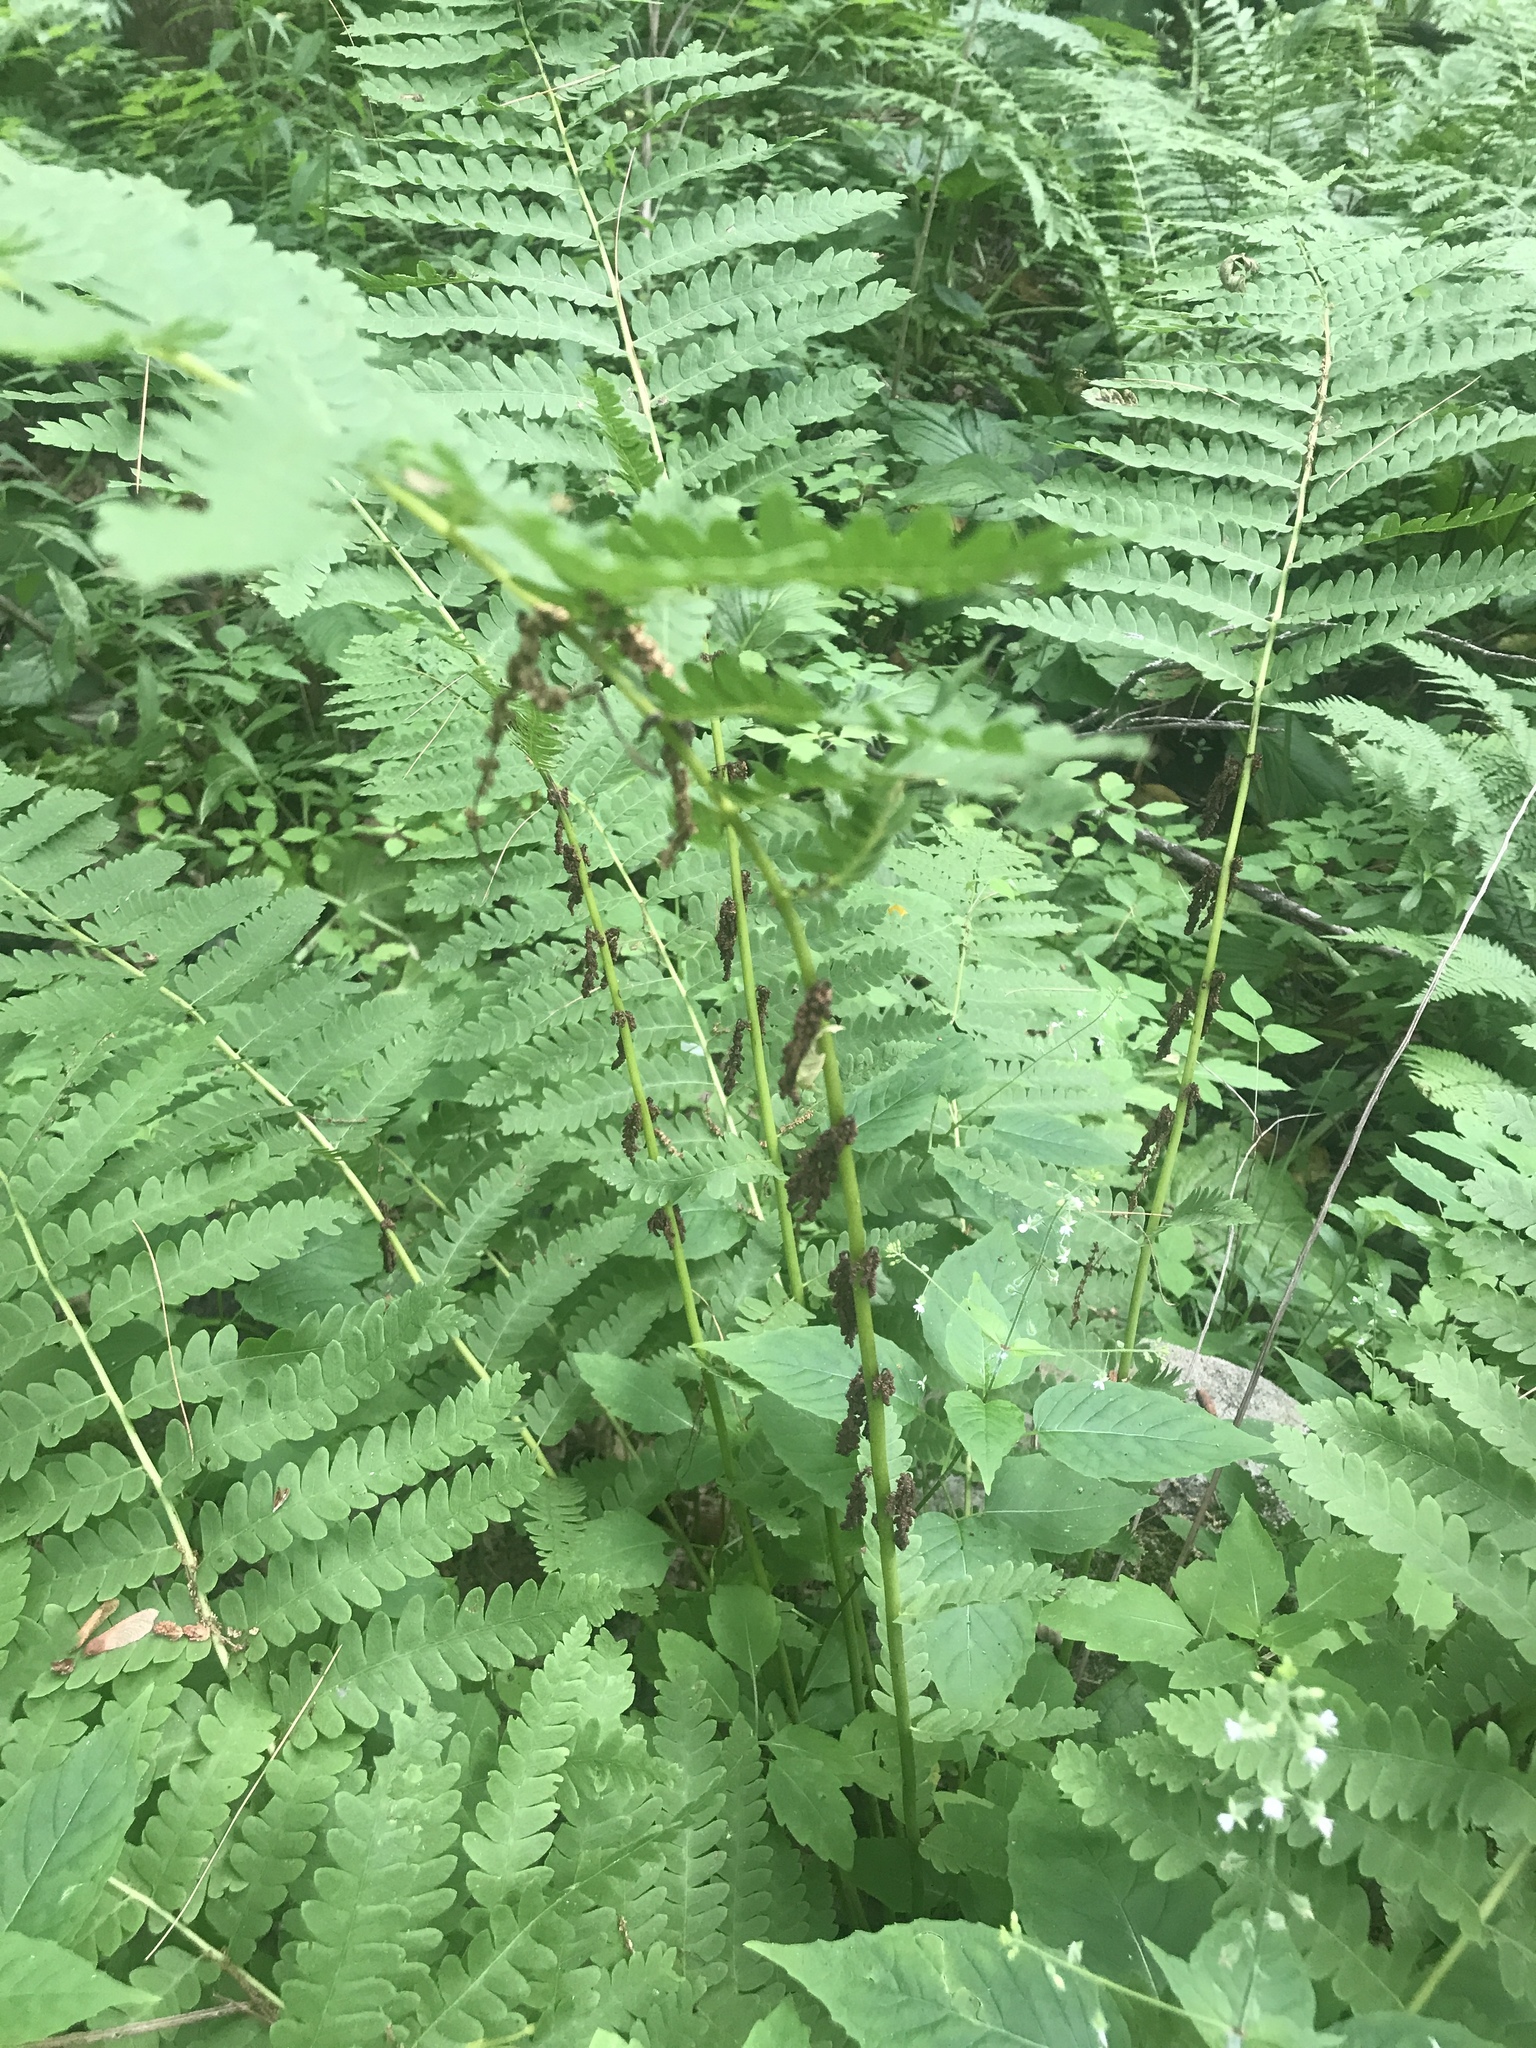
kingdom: Plantae
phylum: Tracheophyta
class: Polypodiopsida
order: Osmundales
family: Osmundaceae
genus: Claytosmunda
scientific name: Claytosmunda claytoniana
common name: Clayton's fern
